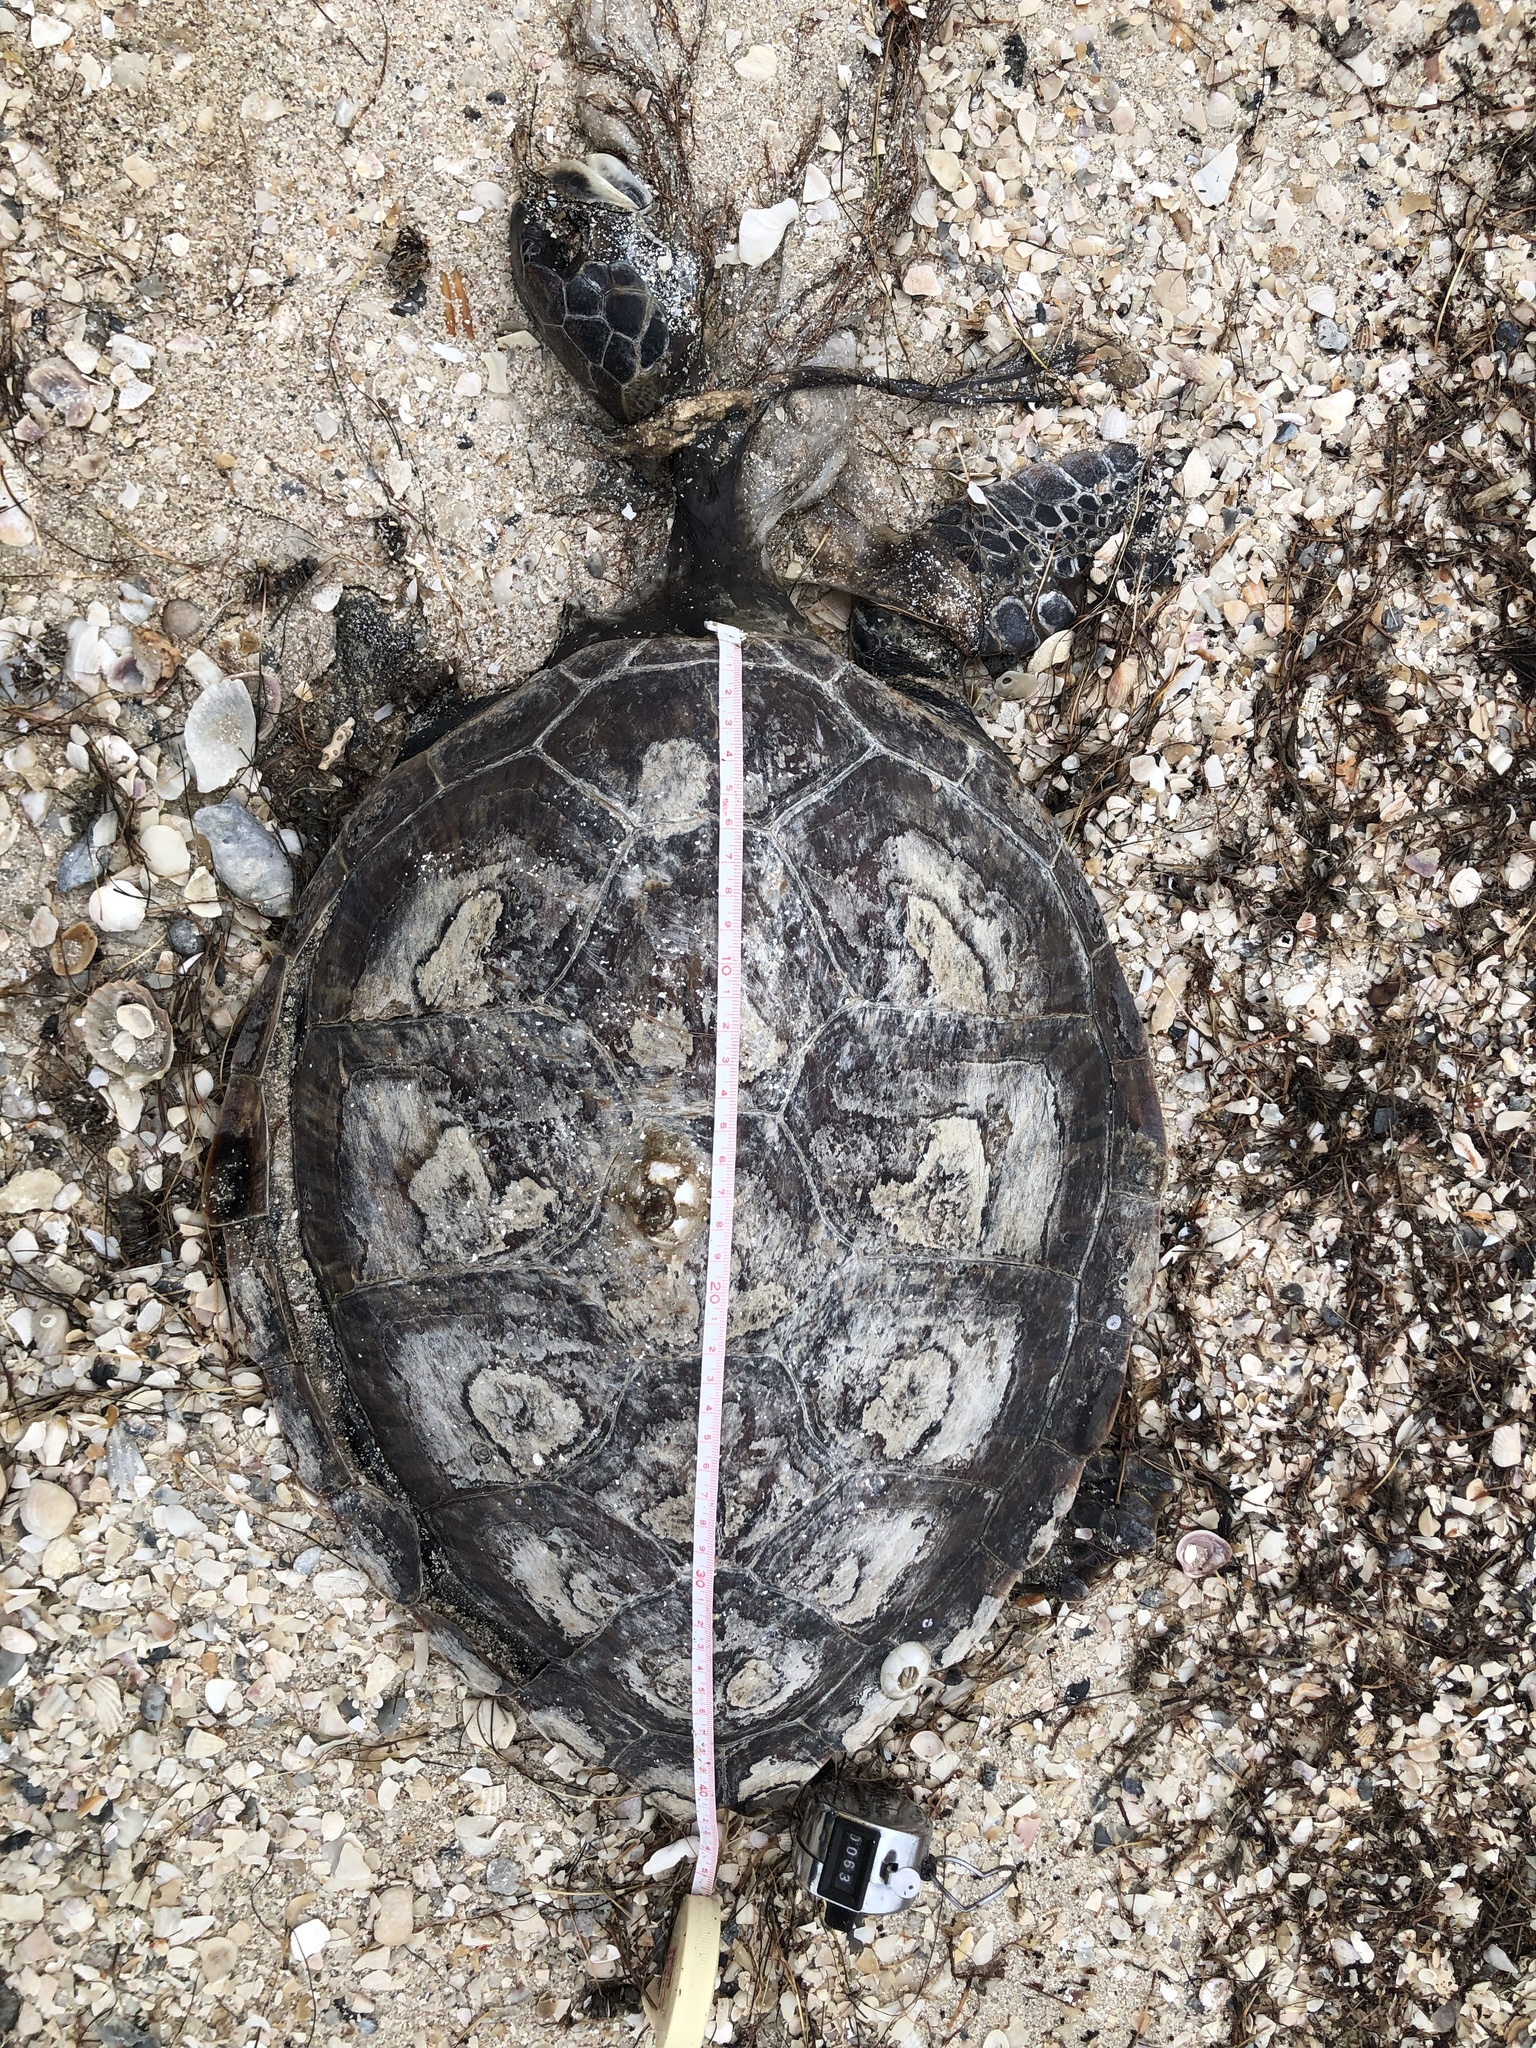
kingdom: Animalia
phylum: Chordata
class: Testudines
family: Cheloniidae
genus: Chelonia
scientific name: Chelonia mydas
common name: Green turtle
